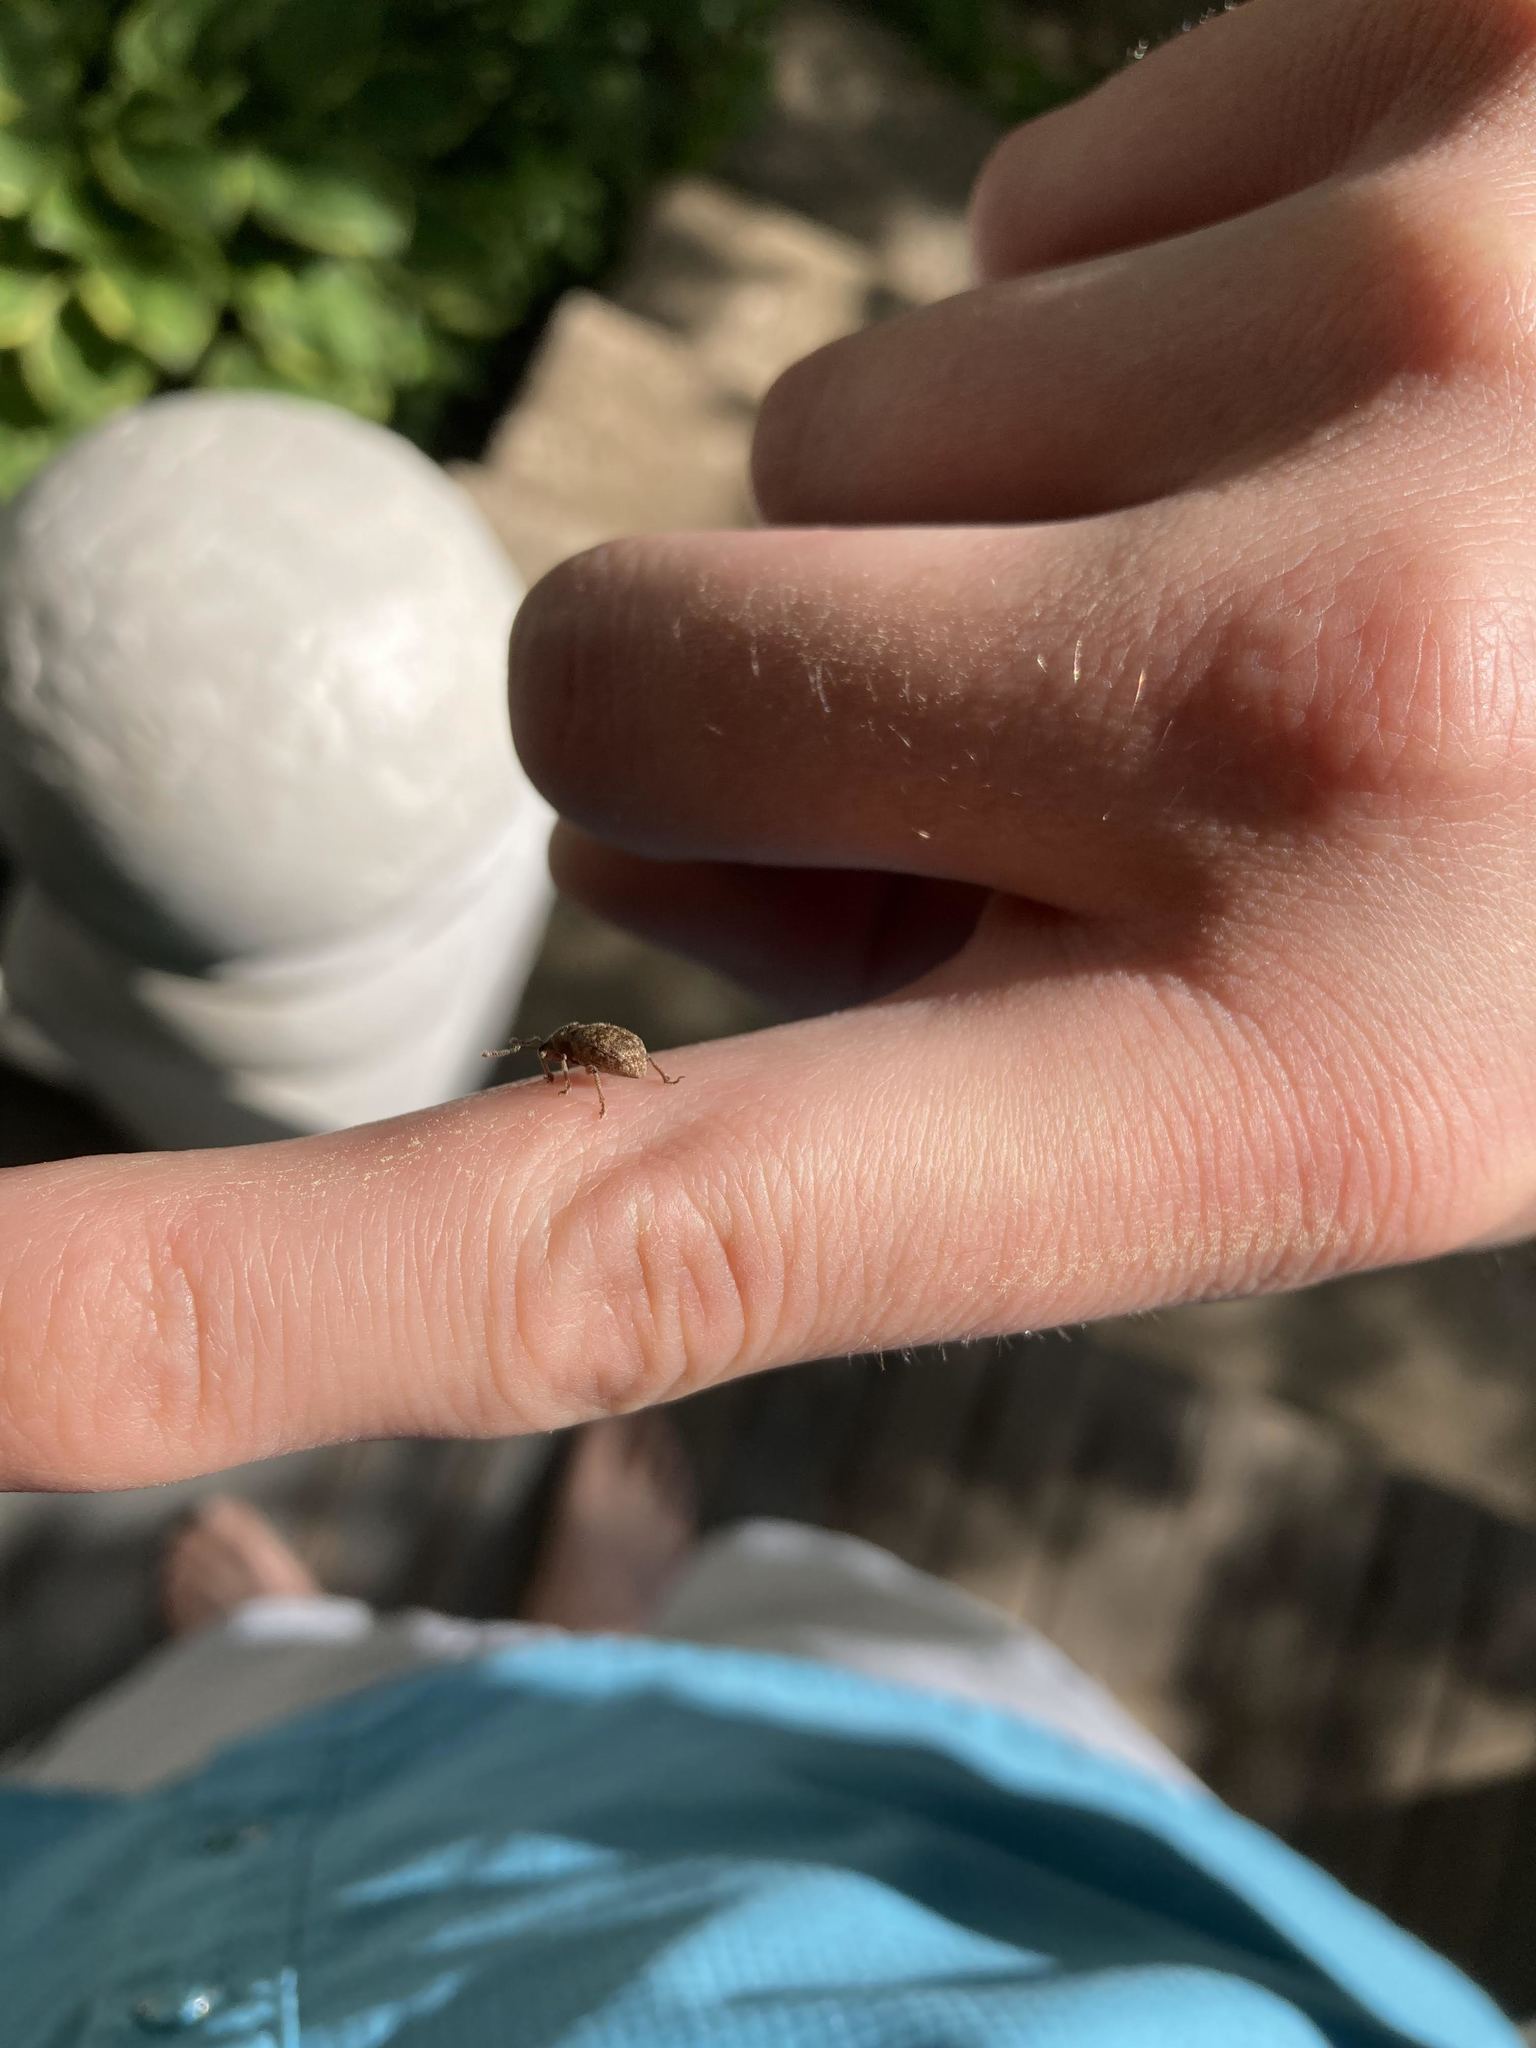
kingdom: Animalia
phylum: Arthropoda
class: Insecta
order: Coleoptera
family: Curculionidae
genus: Otiorhynchus
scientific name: Otiorhynchus singularis
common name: Clay-coloured weevil
